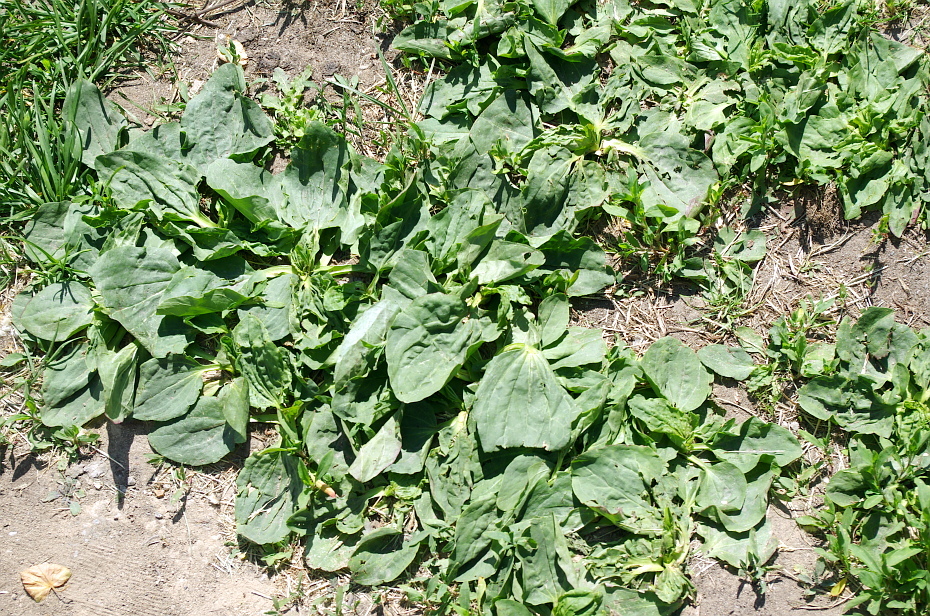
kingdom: Plantae
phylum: Tracheophyta
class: Magnoliopsida
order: Lamiales
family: Plantaginaceae
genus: Plantago
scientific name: Plantago major
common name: Common plantain
